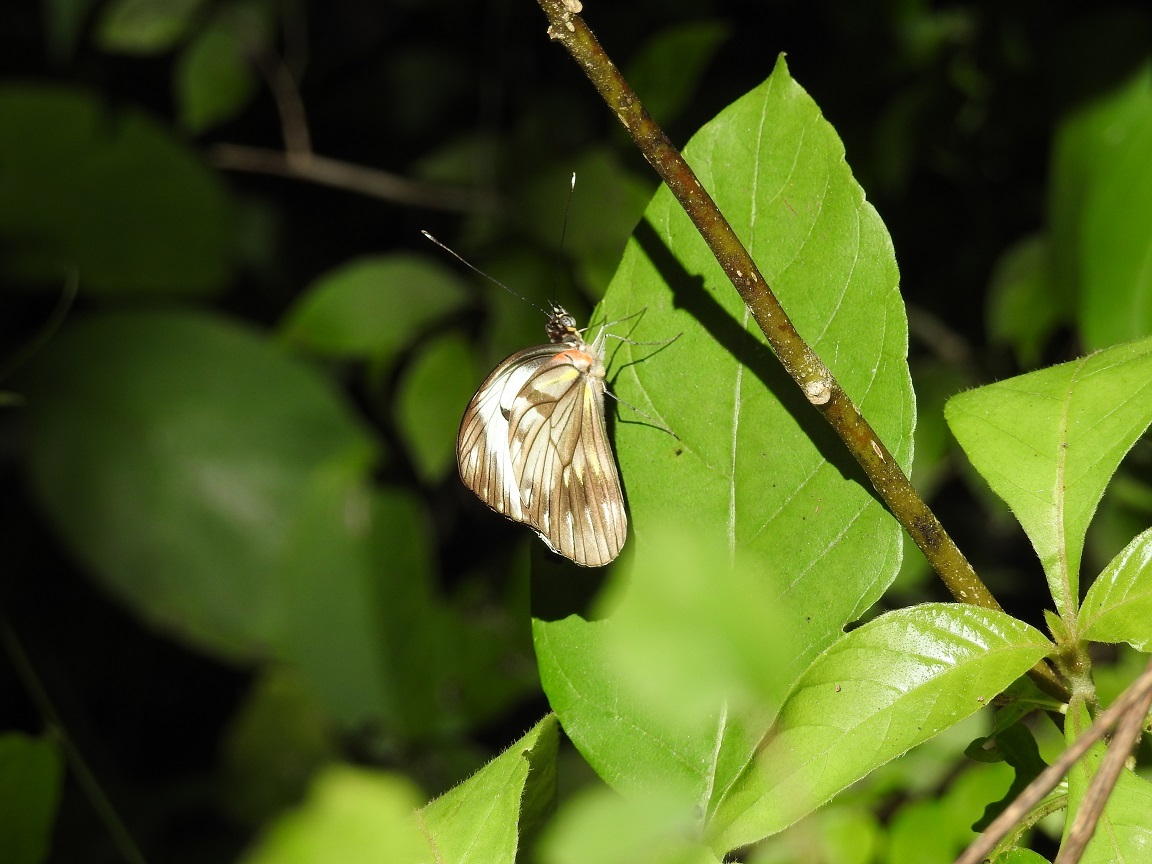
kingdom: Animalia
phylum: Arthropoda
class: Insecta
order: Lepidoptera
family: Pieridae
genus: Pieriballia
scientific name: Pieriballia viardi
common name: Painted white
